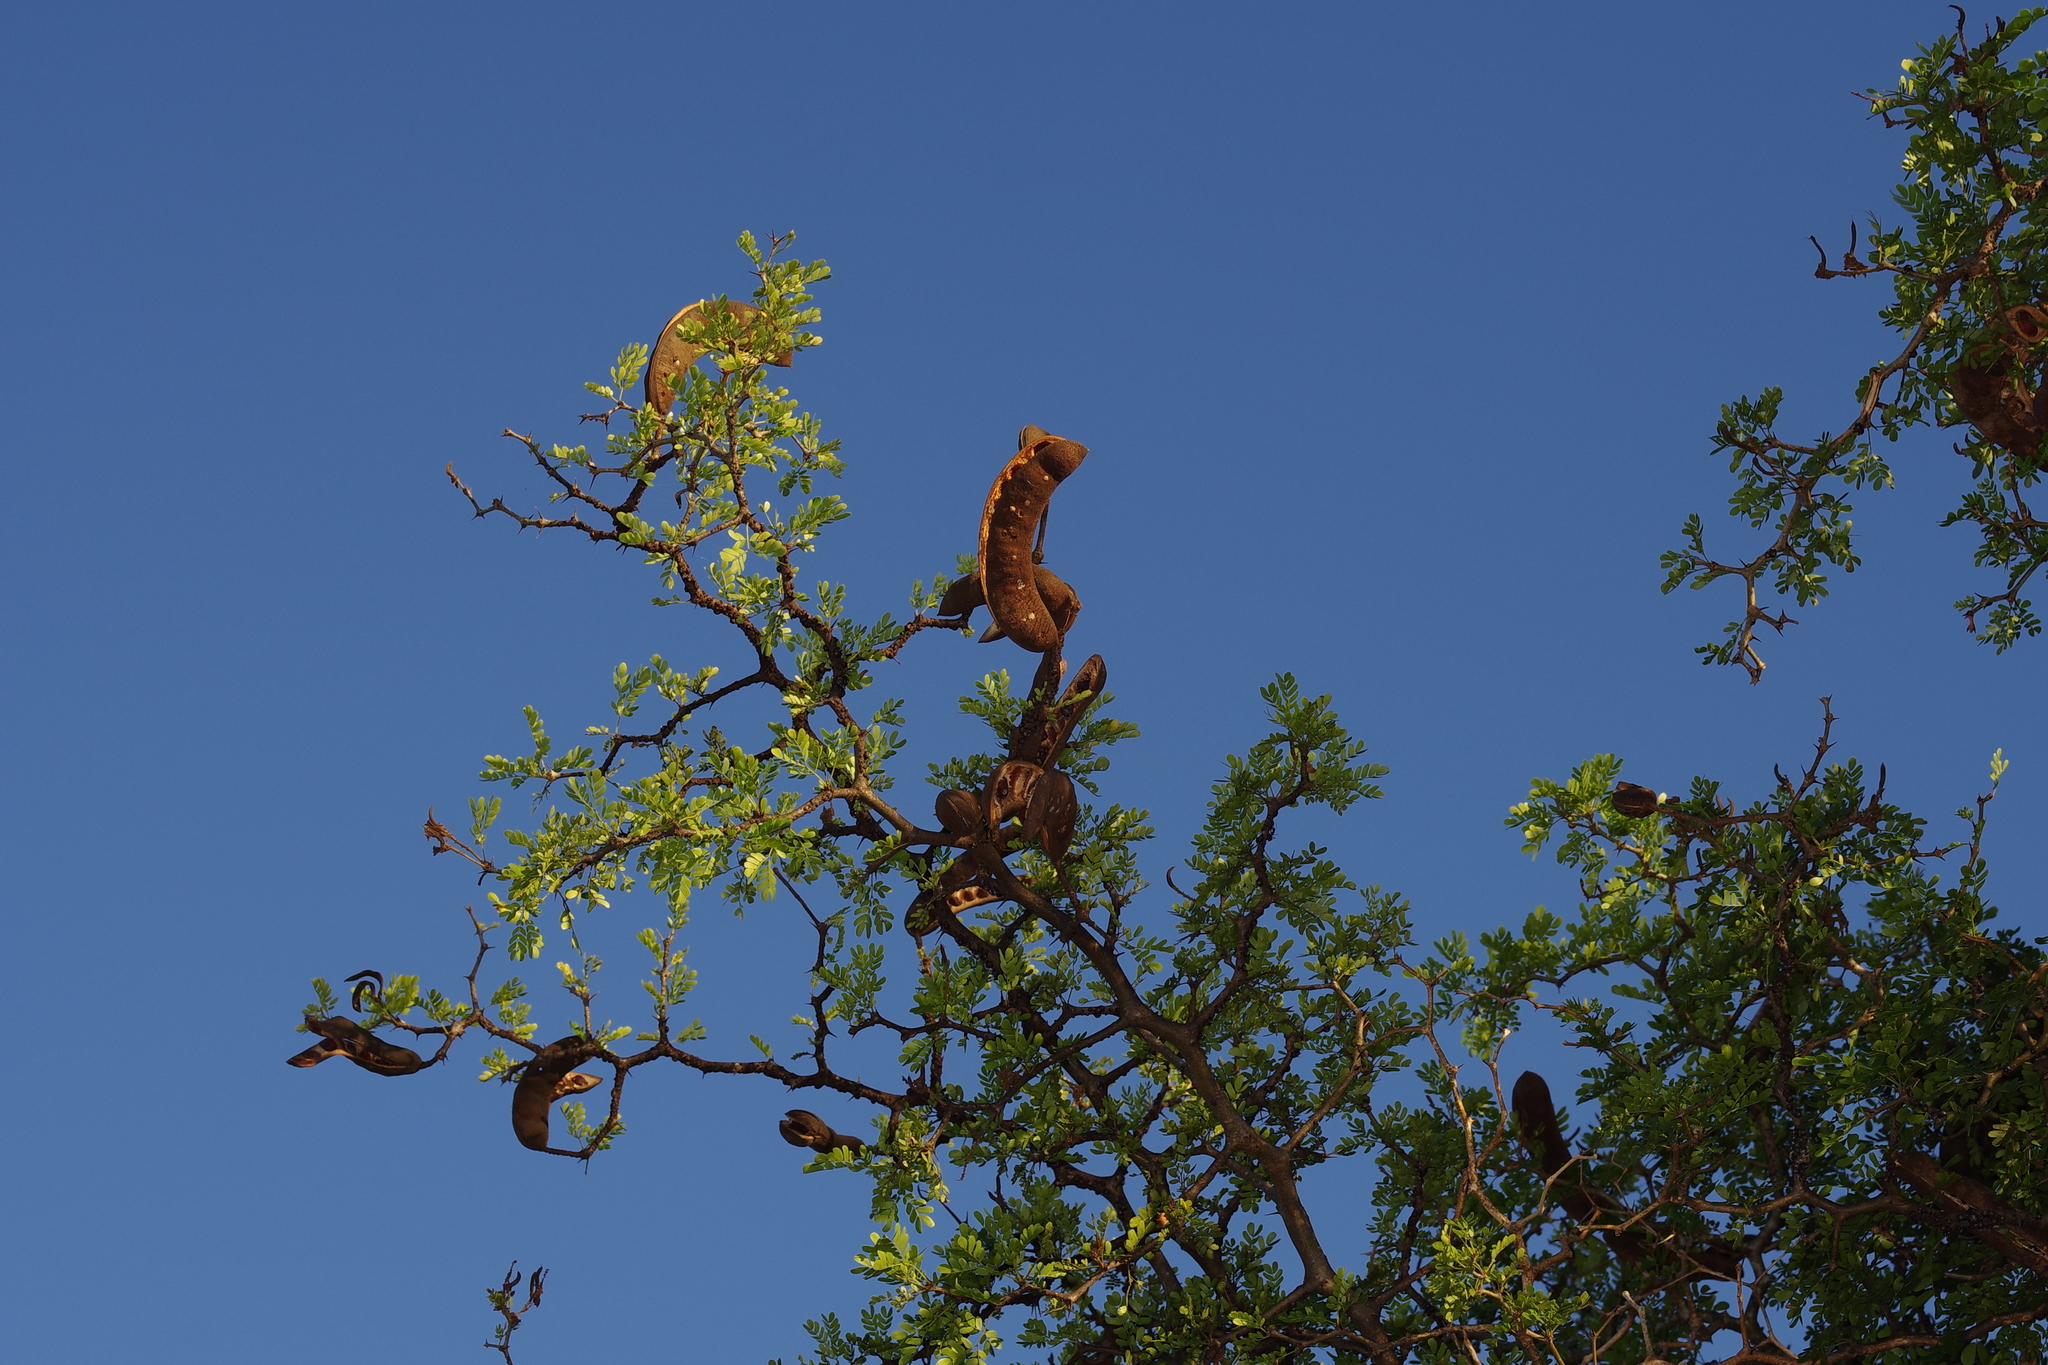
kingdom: Plantae
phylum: Tracheophyta
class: Magnoliopsida
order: Fabales
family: Fabaceae
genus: Ebenopsis
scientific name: Ebenopsis ebano
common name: Ebony blackbead
